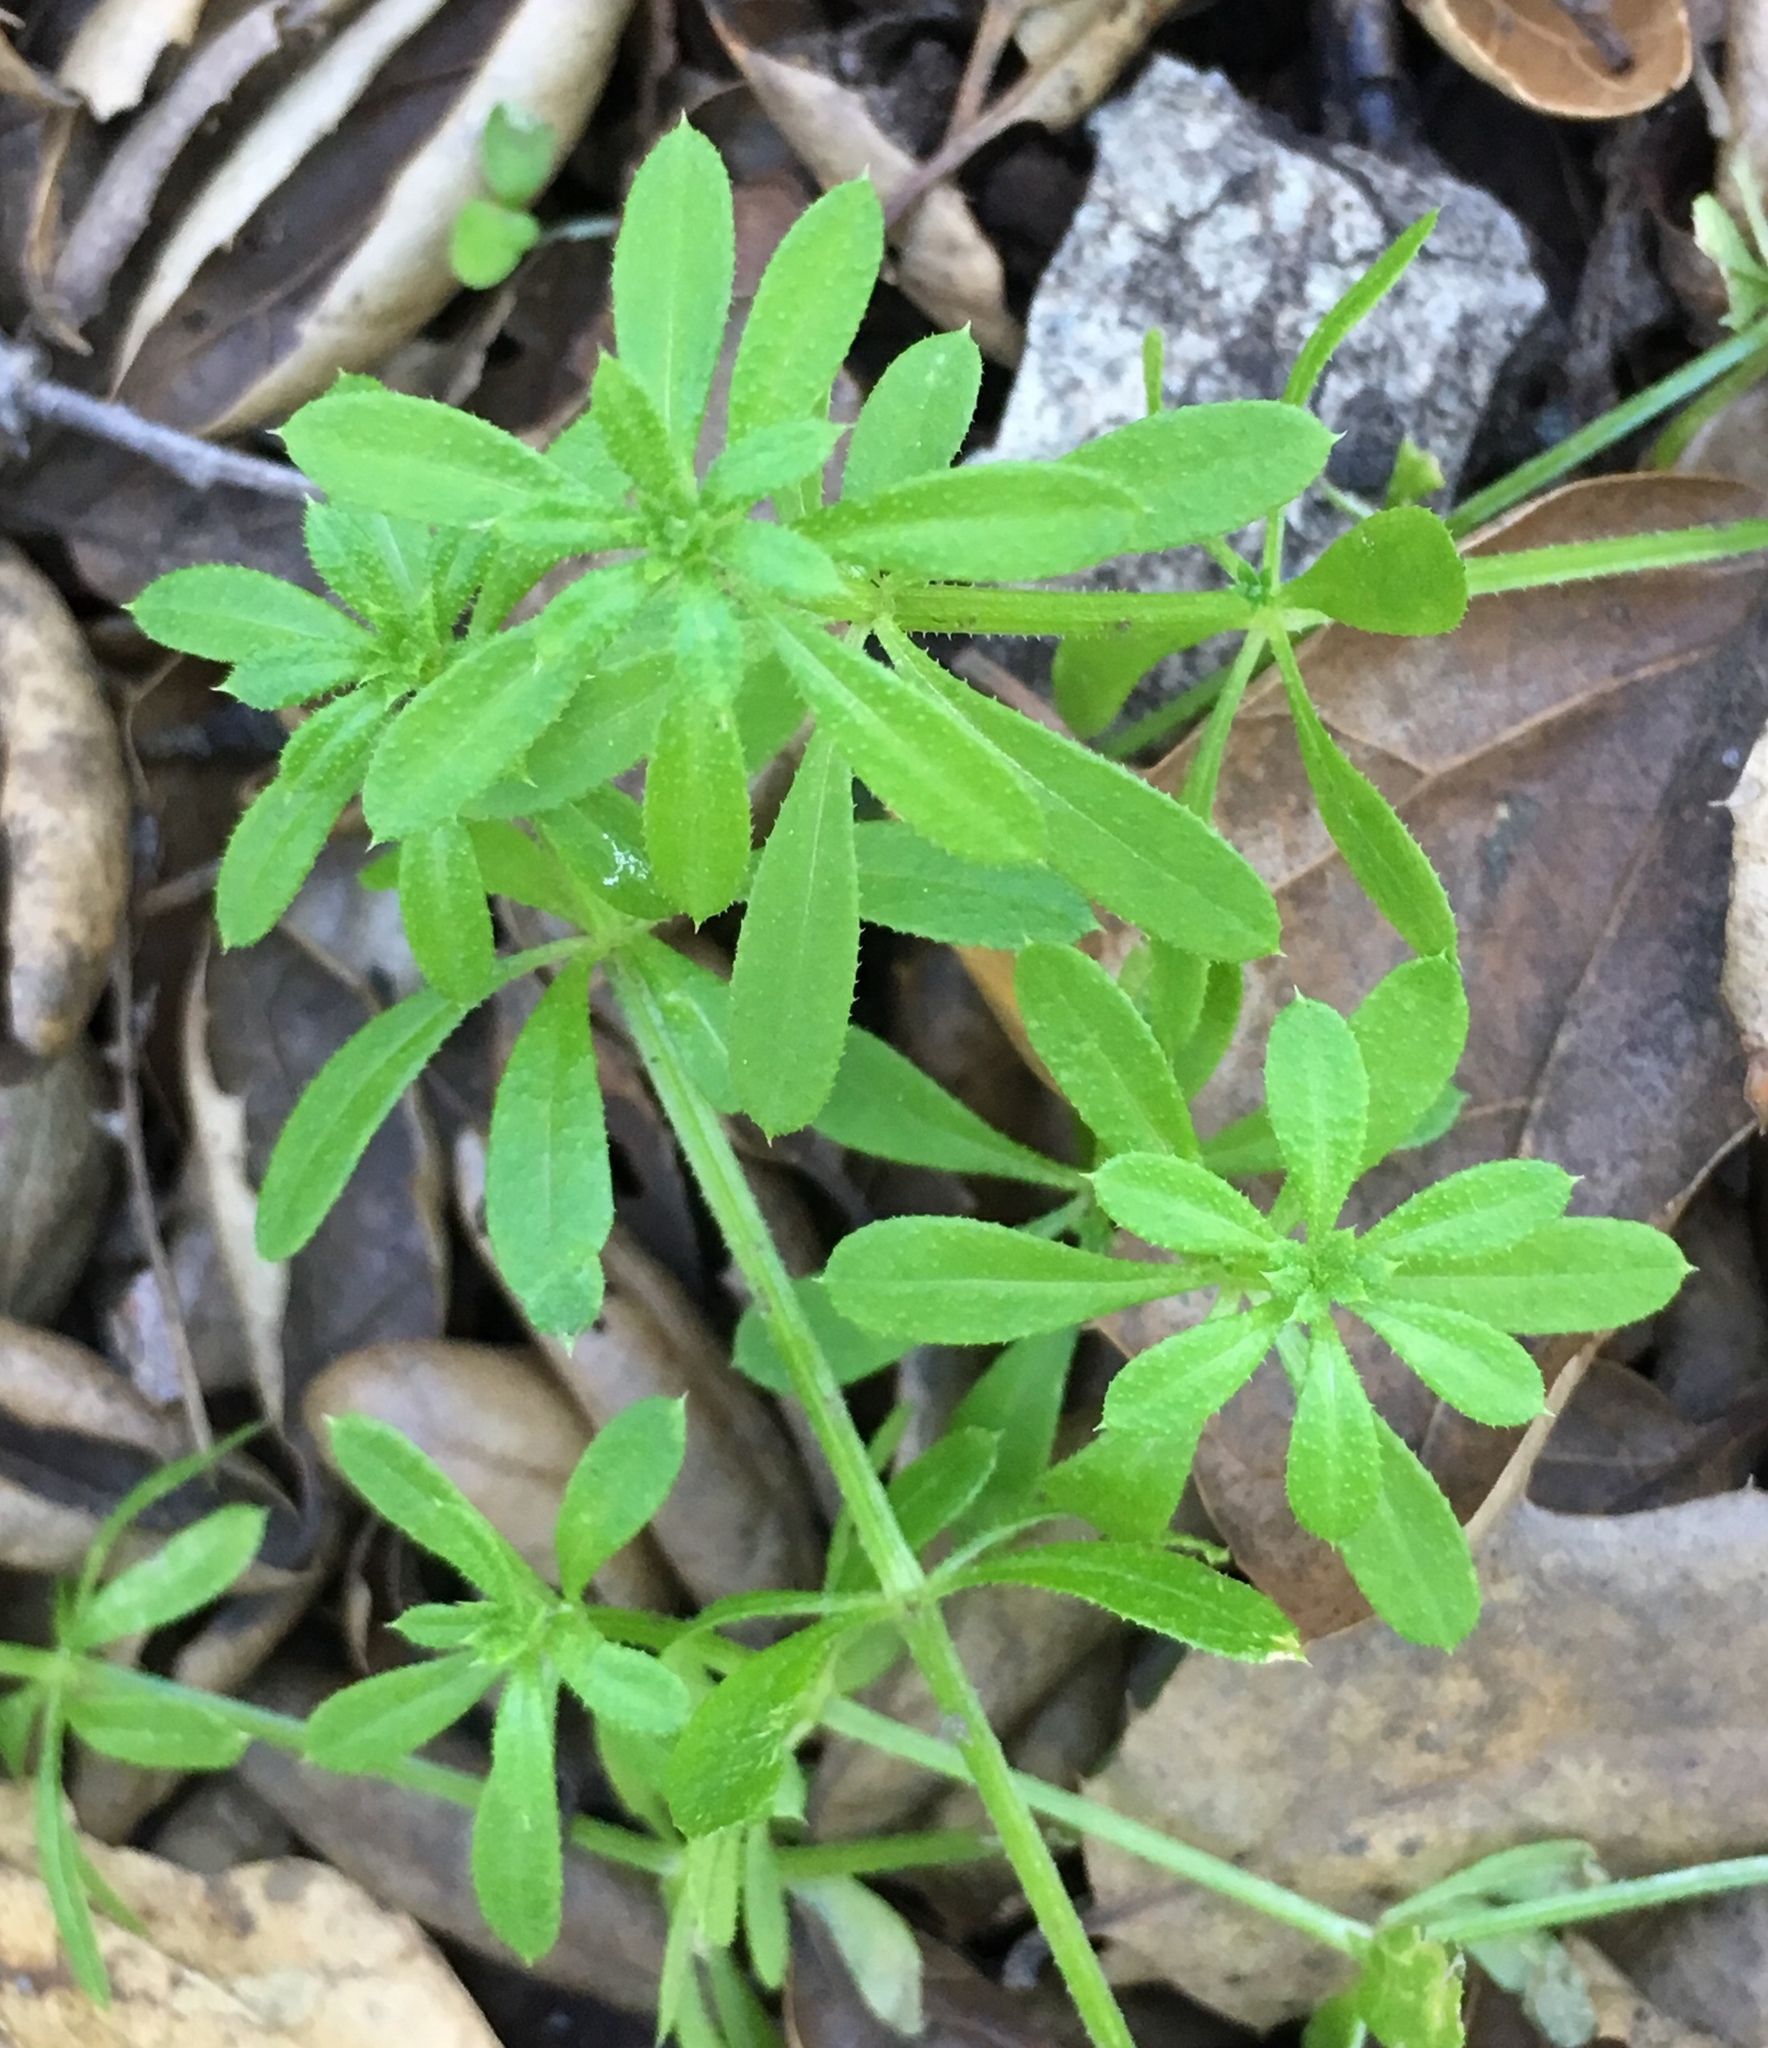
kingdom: Plantae
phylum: Tracheophyta
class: Magnoliopsida
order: Gentianales
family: Rubiaceae
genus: Galium
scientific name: Galium aparine
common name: Cleavers
